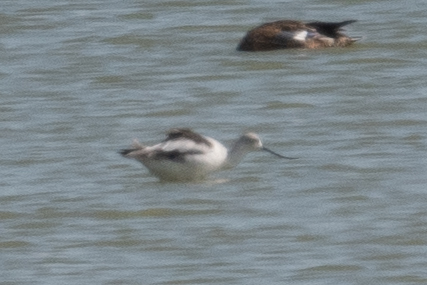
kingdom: Animalia
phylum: Chordata
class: Aves
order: Charadriiformes
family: Recurvirostridae
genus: Recurvirostra
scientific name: Recurvirostra americana
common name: American avocet
